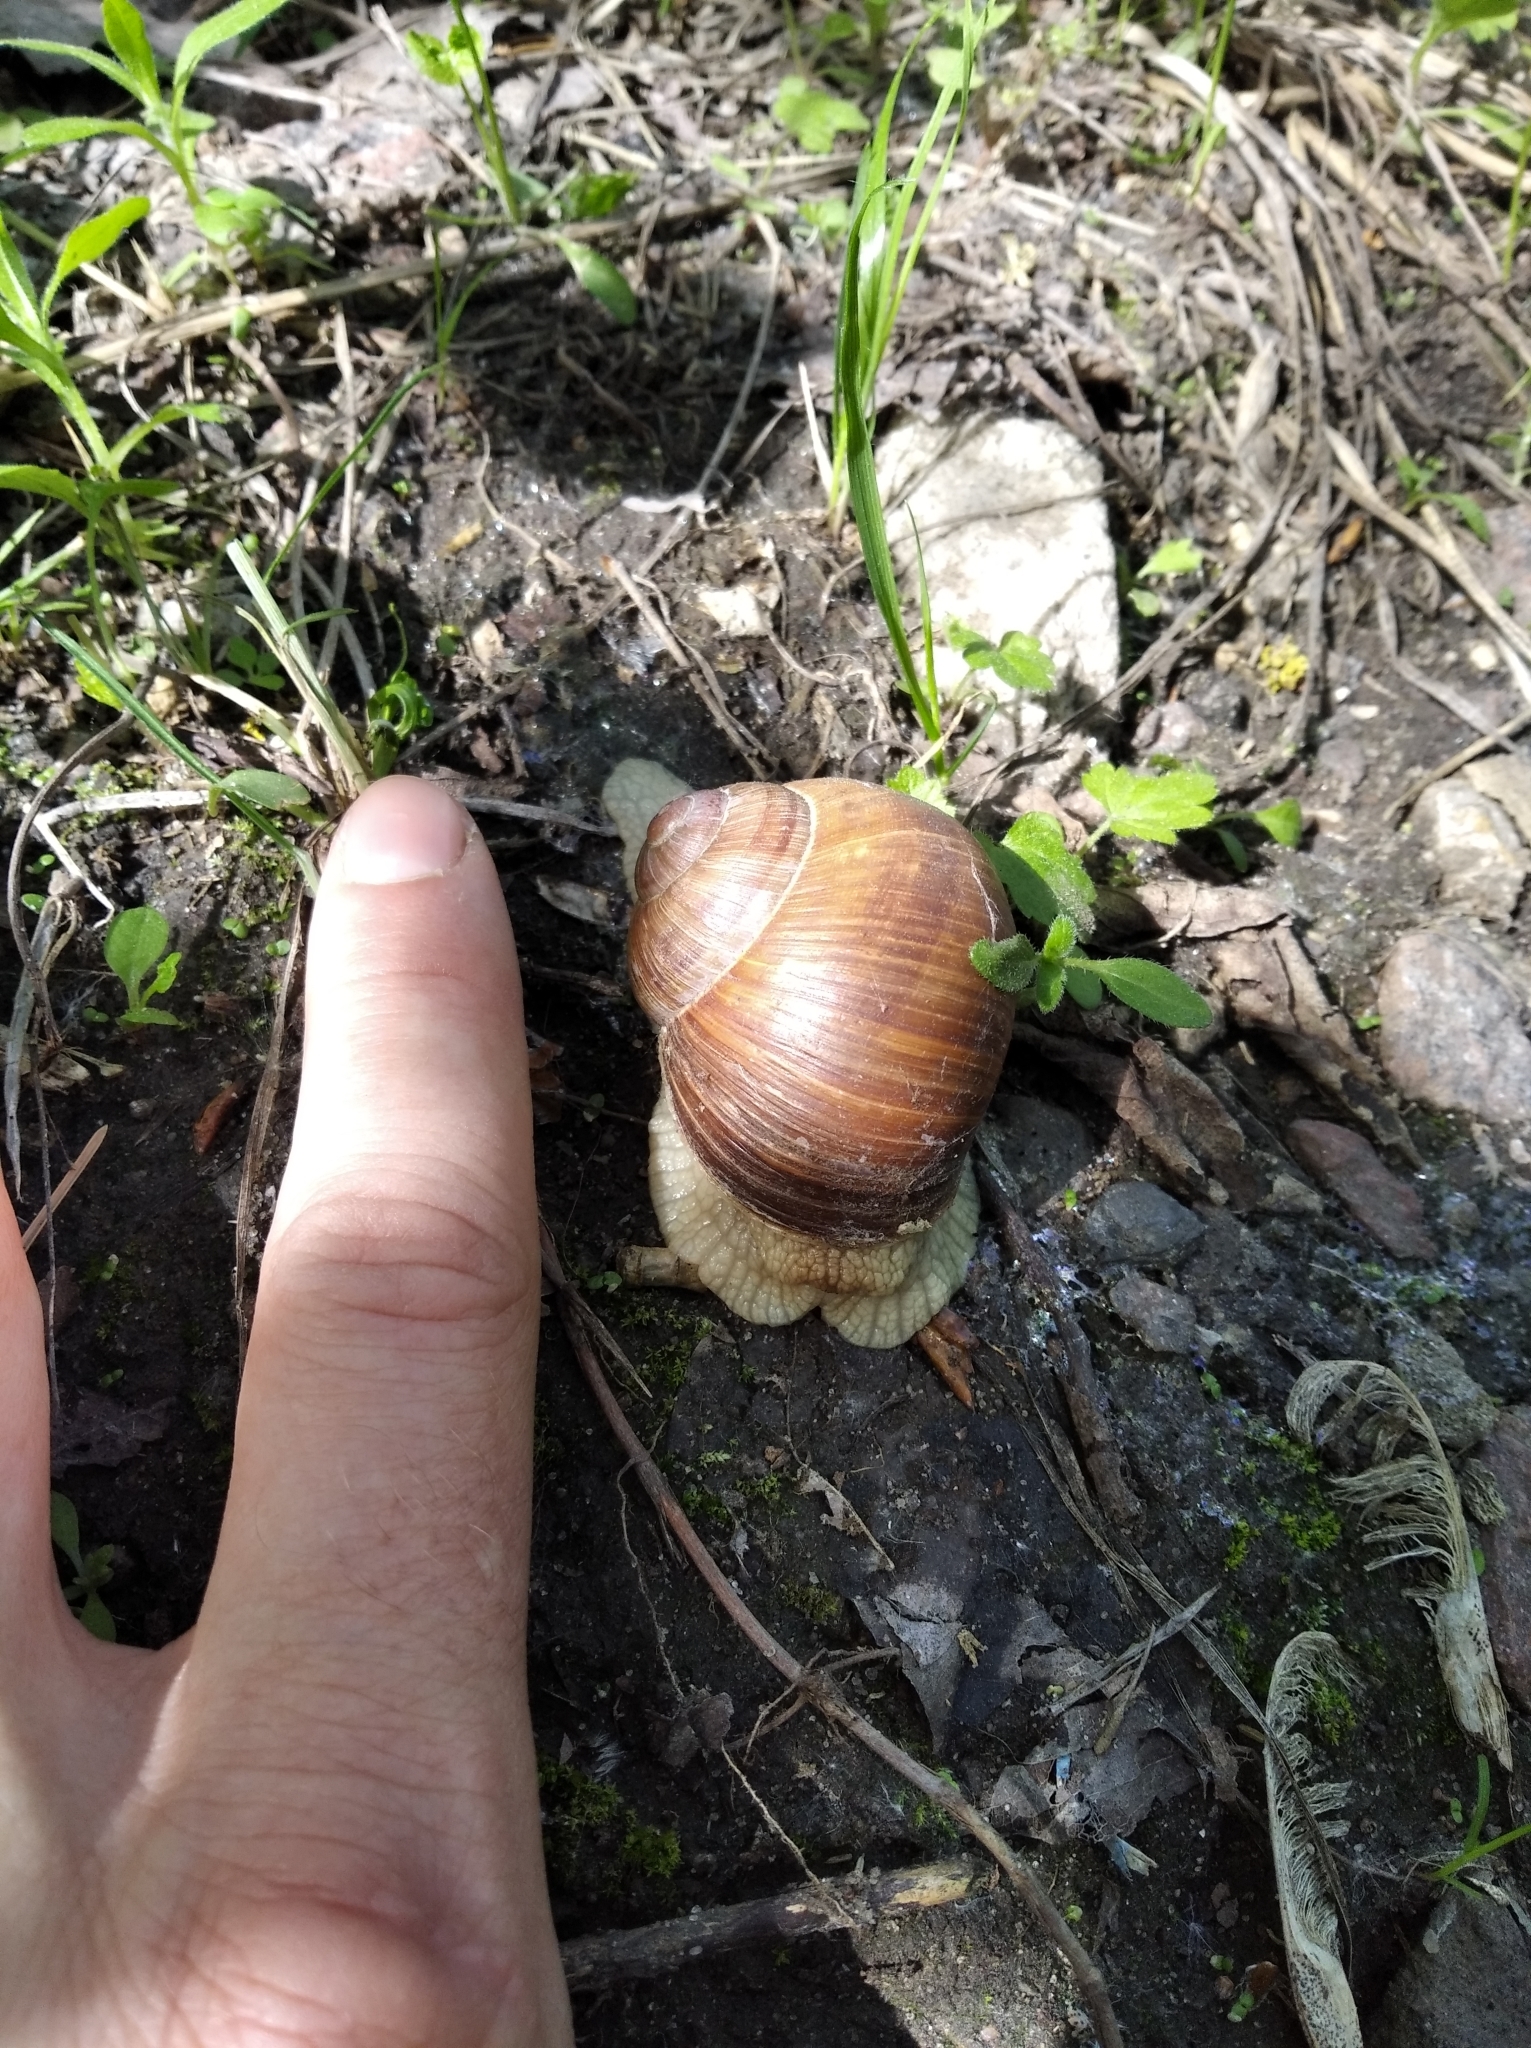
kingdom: Animalia
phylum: Mollusca
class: Gastropoda
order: Stylommatophora
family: Helicidae
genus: Helix
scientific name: Helix pomatia
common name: Roman snail
